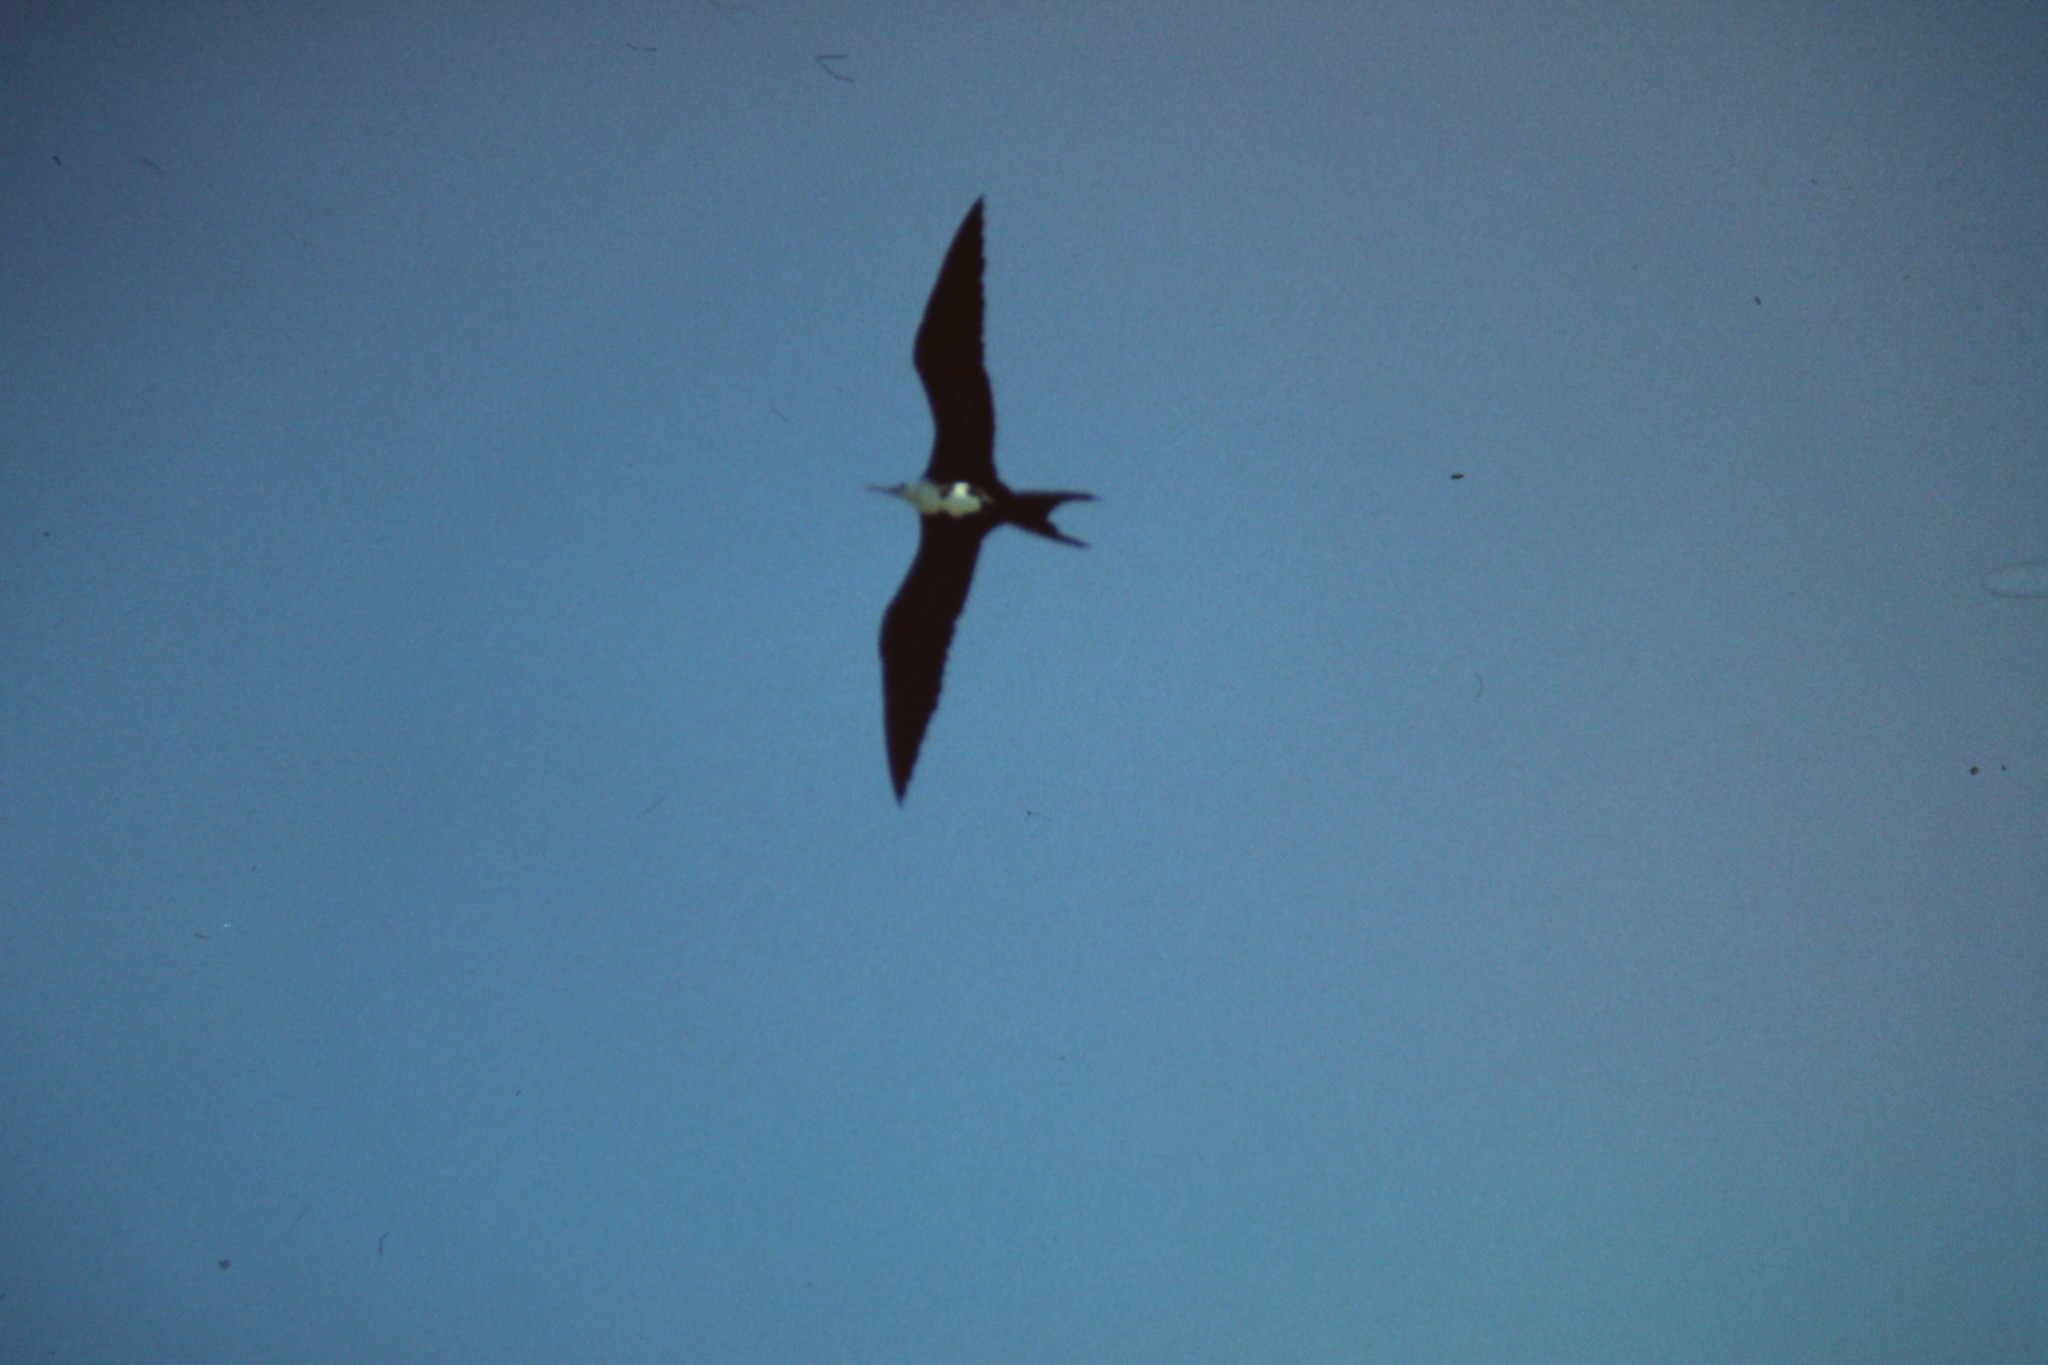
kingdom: Animalia
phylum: Chordata
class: Aves
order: Suliformes
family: Fregatidae
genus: Fregata
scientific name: Fregata magnificens
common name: Magnificent frigatebird
